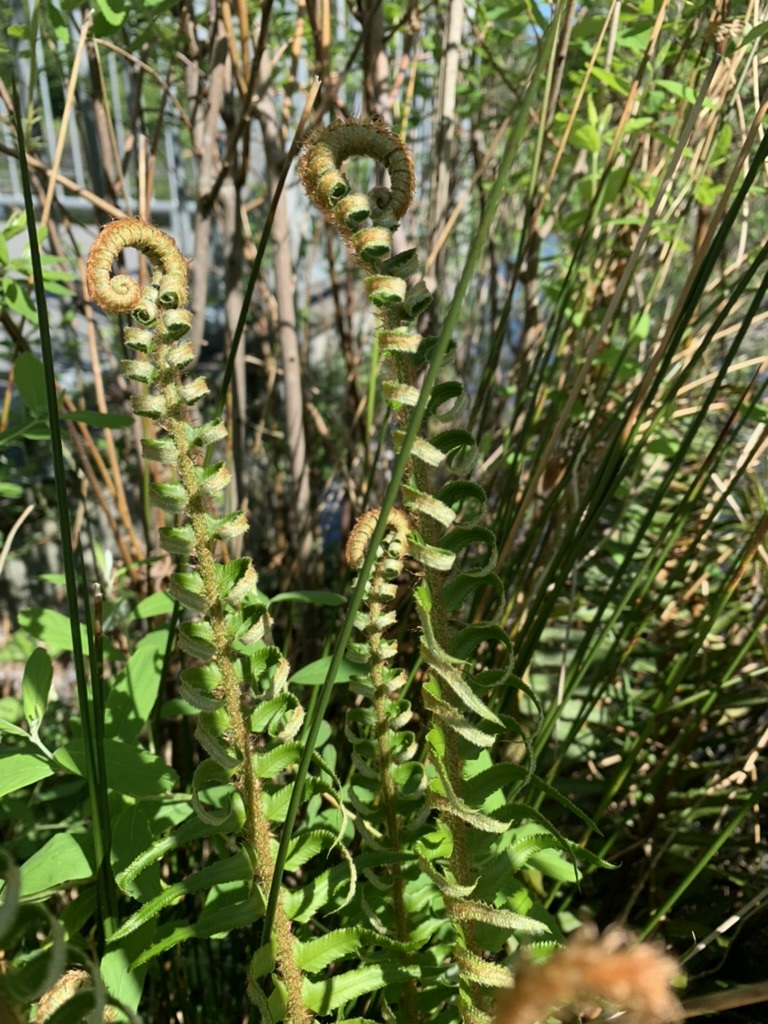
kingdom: Plantae
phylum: Tracheophyta
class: Polypodiopsida
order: Polypodiales
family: Dryopteridaceae
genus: Polystichum
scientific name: Polystichum munitum
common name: Western sword-fern
